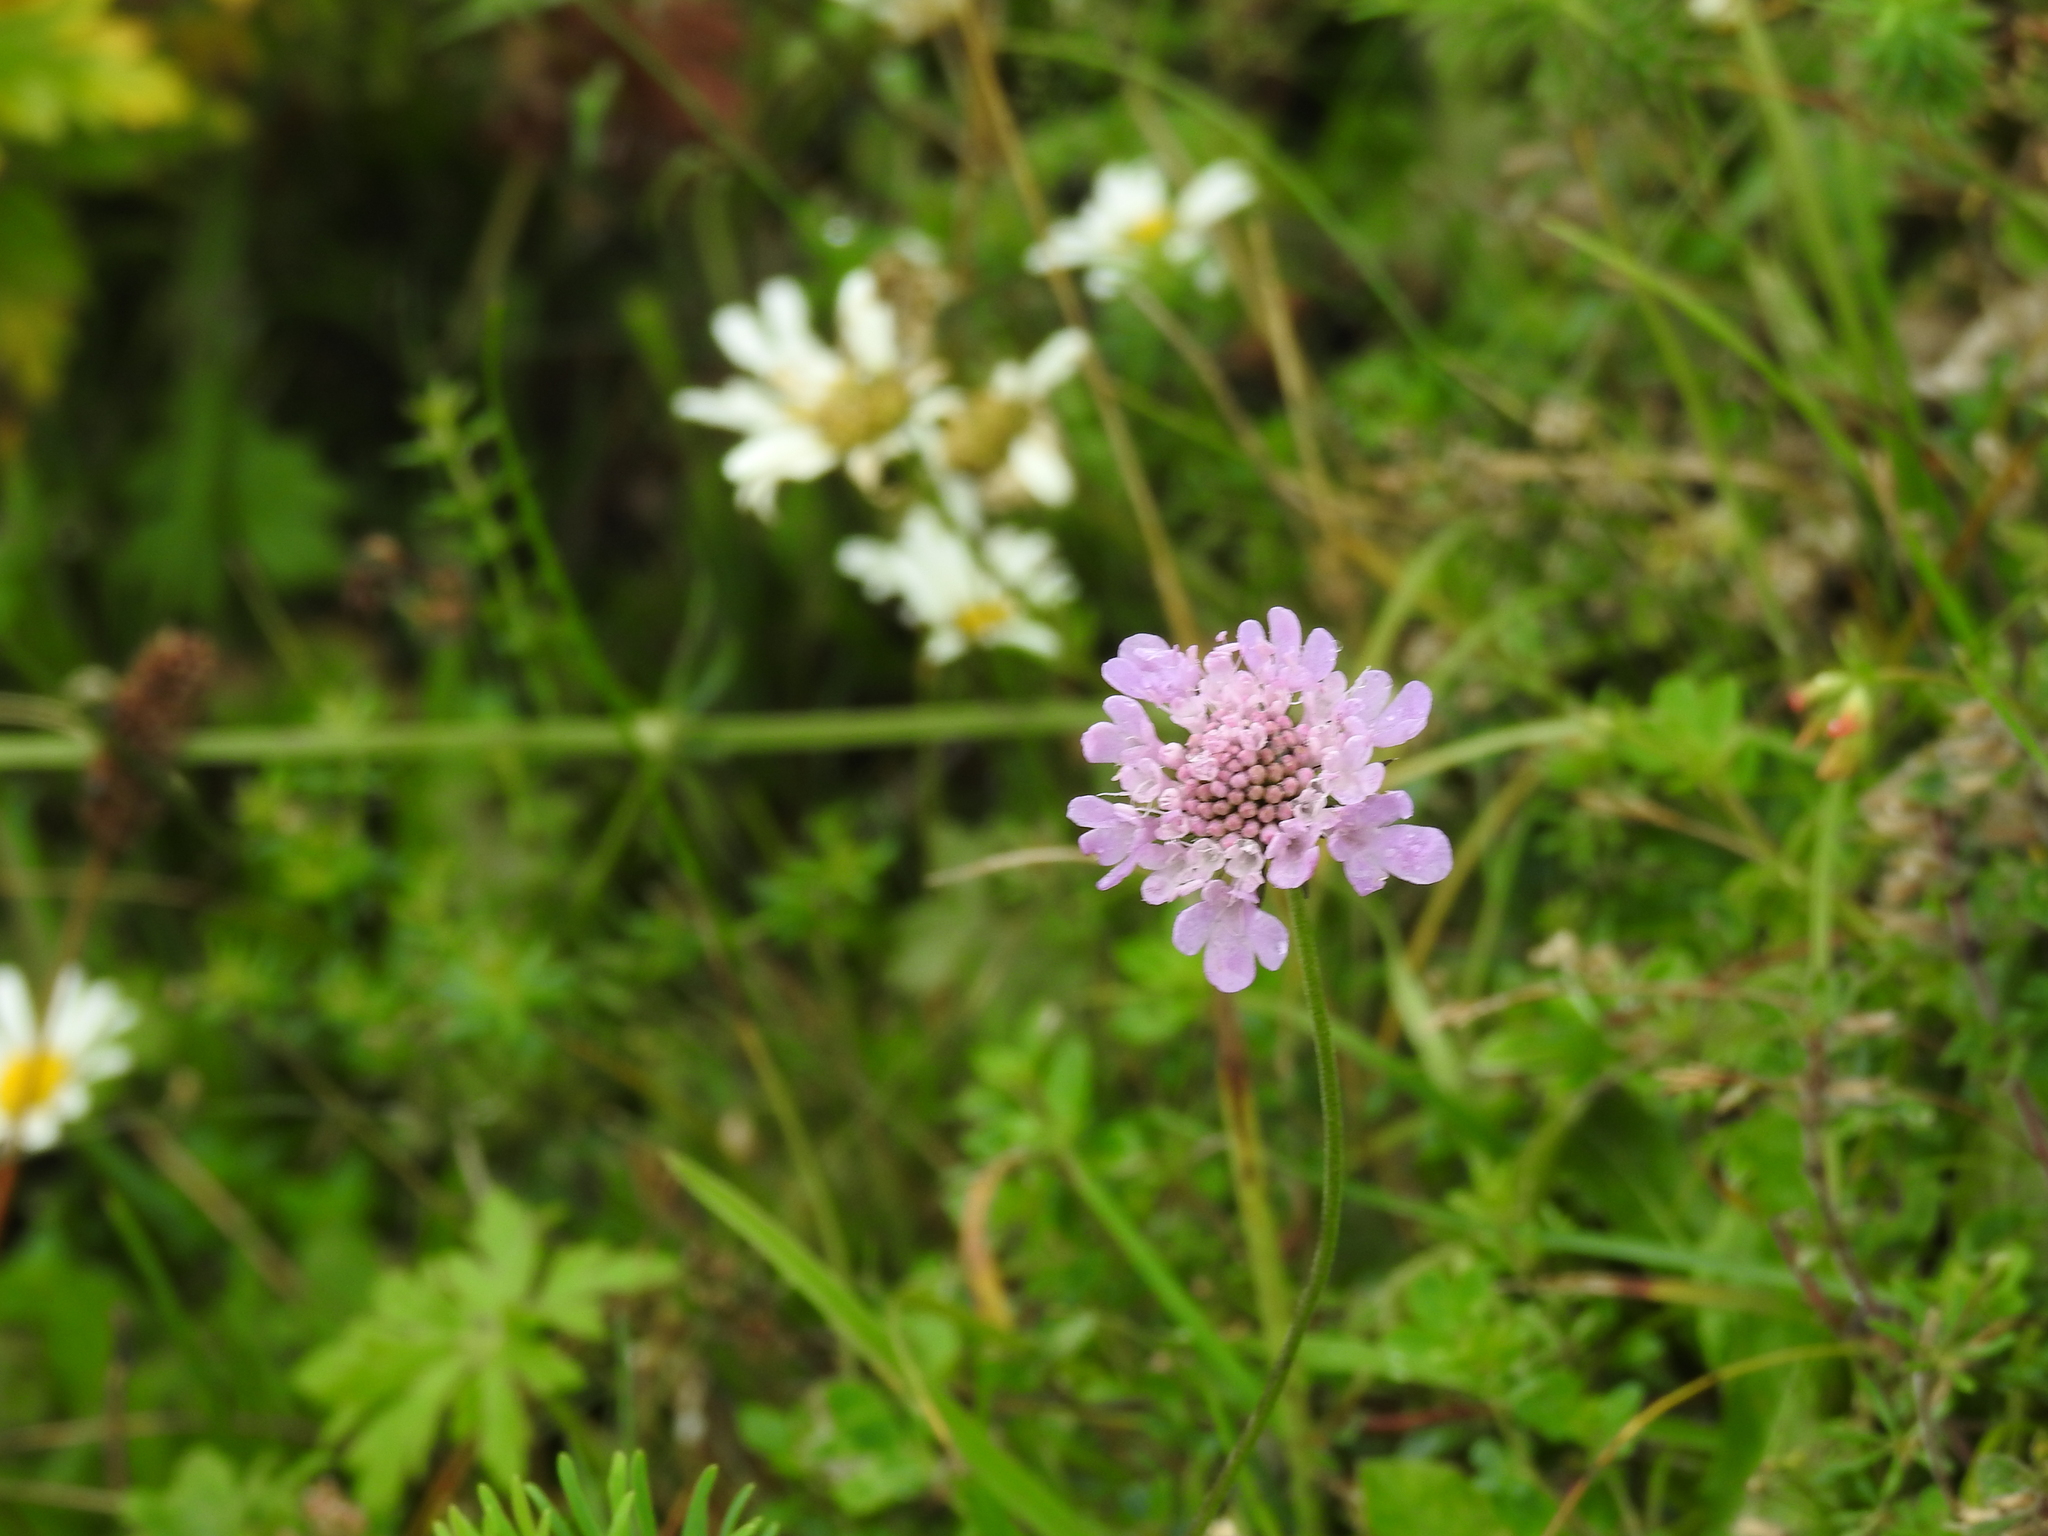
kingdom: Plantae
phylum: Tracheophyta
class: Magnoliopsida
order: Dipsacales
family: Caprifoliaceae
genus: Scabiosa
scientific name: Scabiosa lucida
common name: Shining scabious
